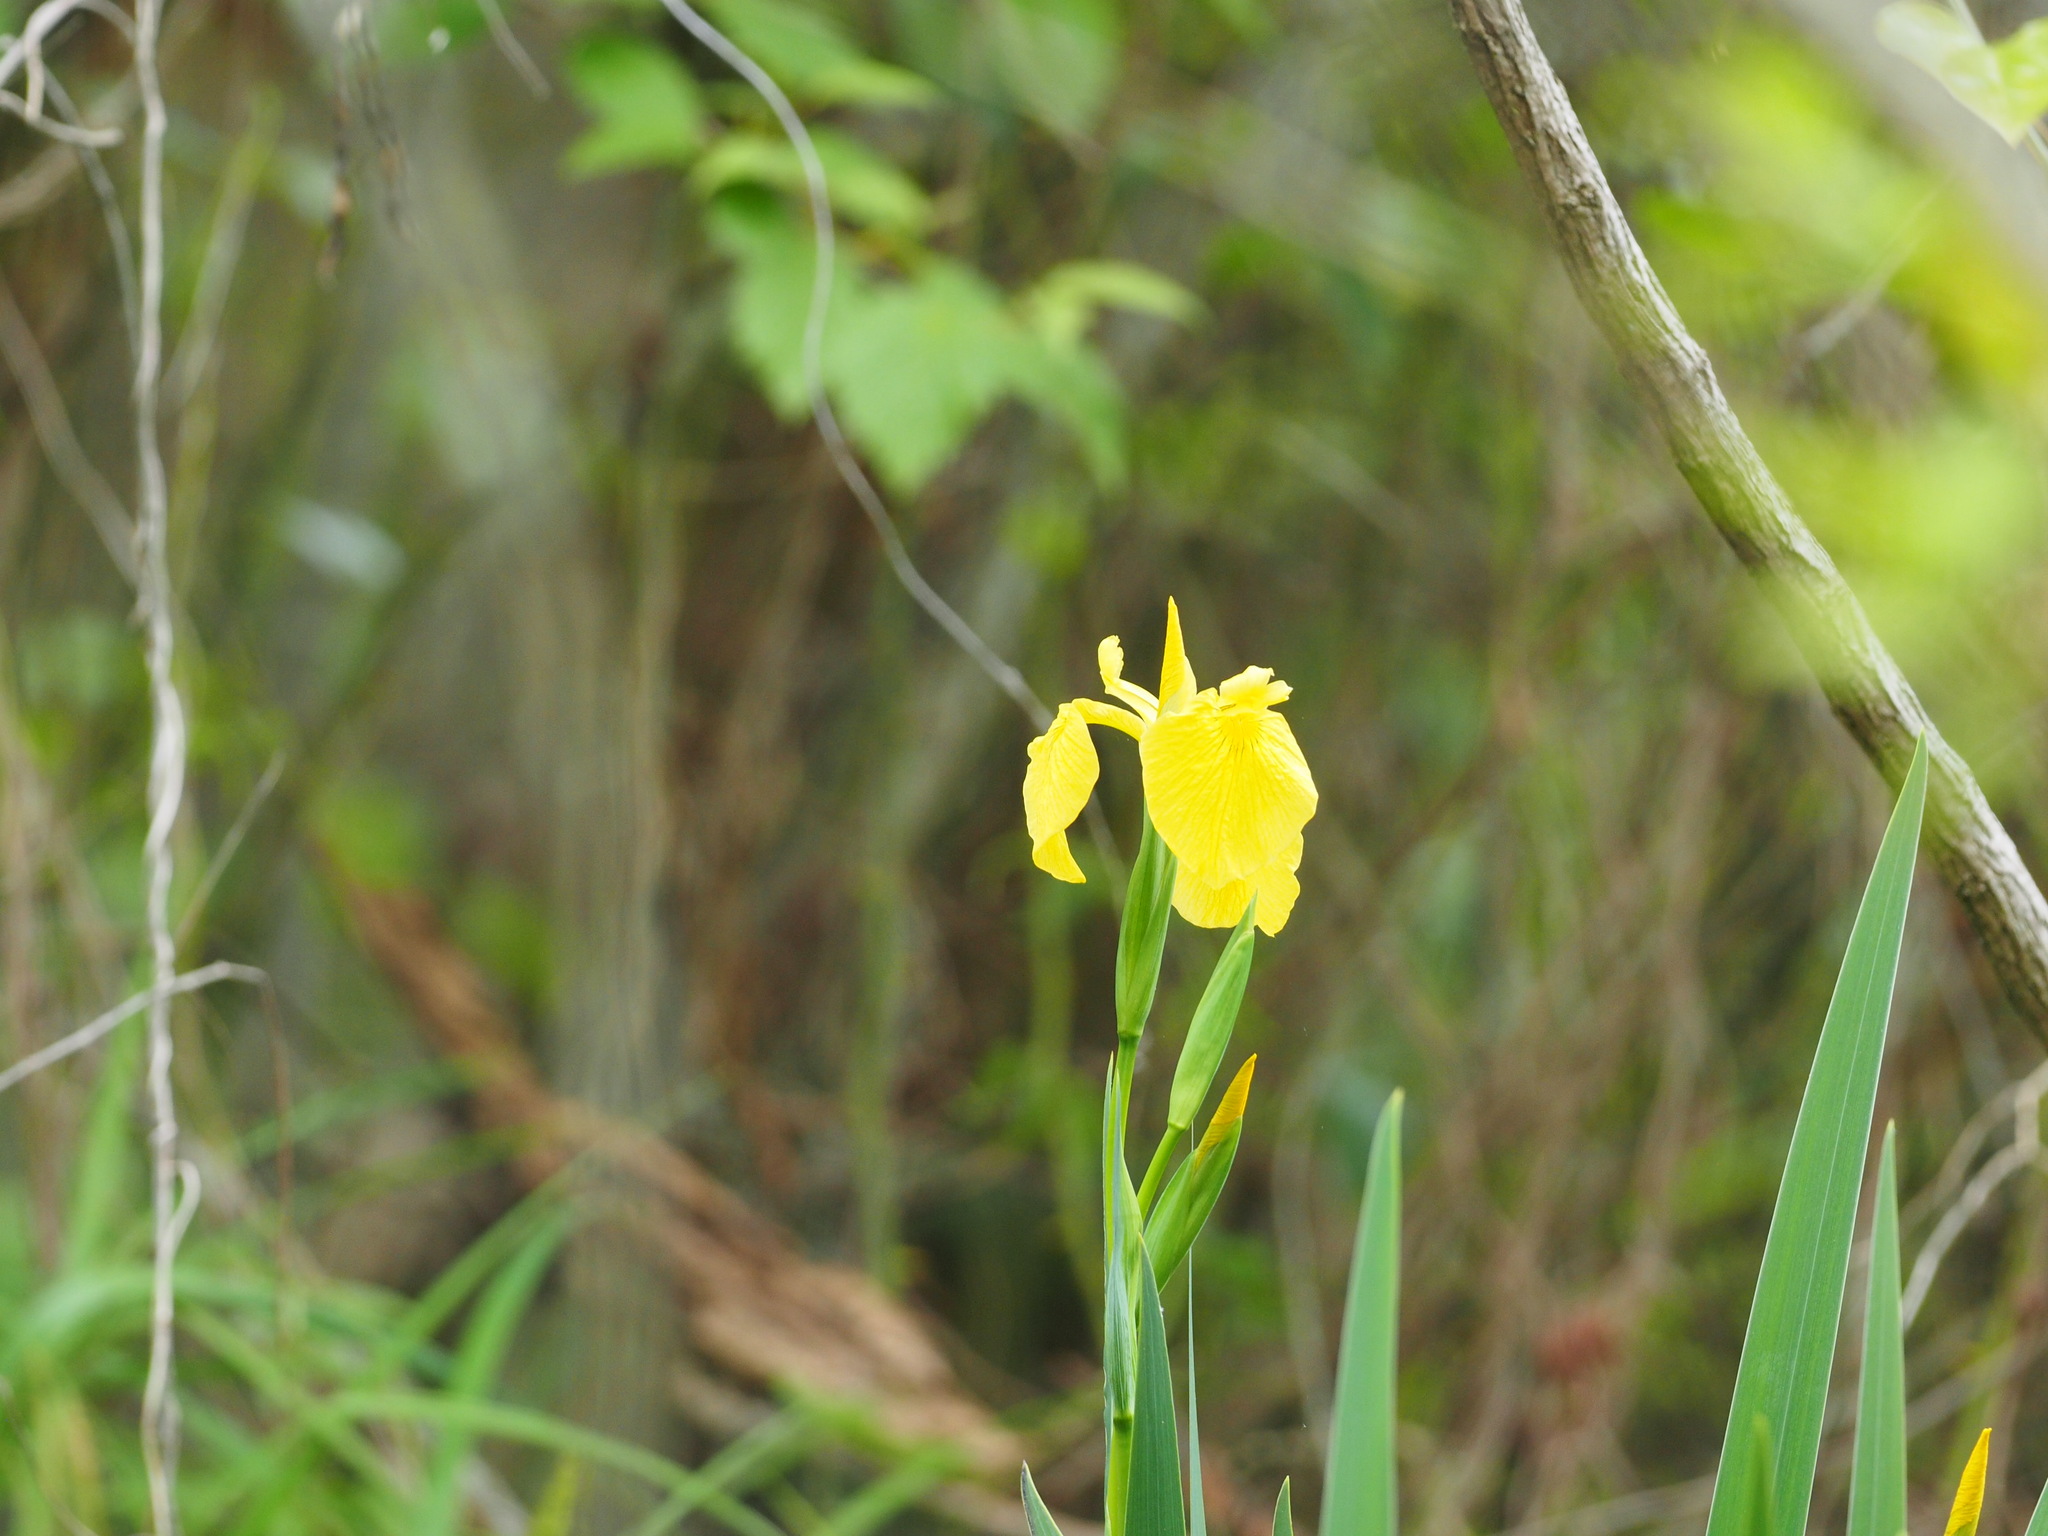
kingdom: Plantae
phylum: Tracheophyta
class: Liliopsida
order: Asparagales
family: Iridaceae
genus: Iris
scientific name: Iris pseudacorus
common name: Yellow flag
